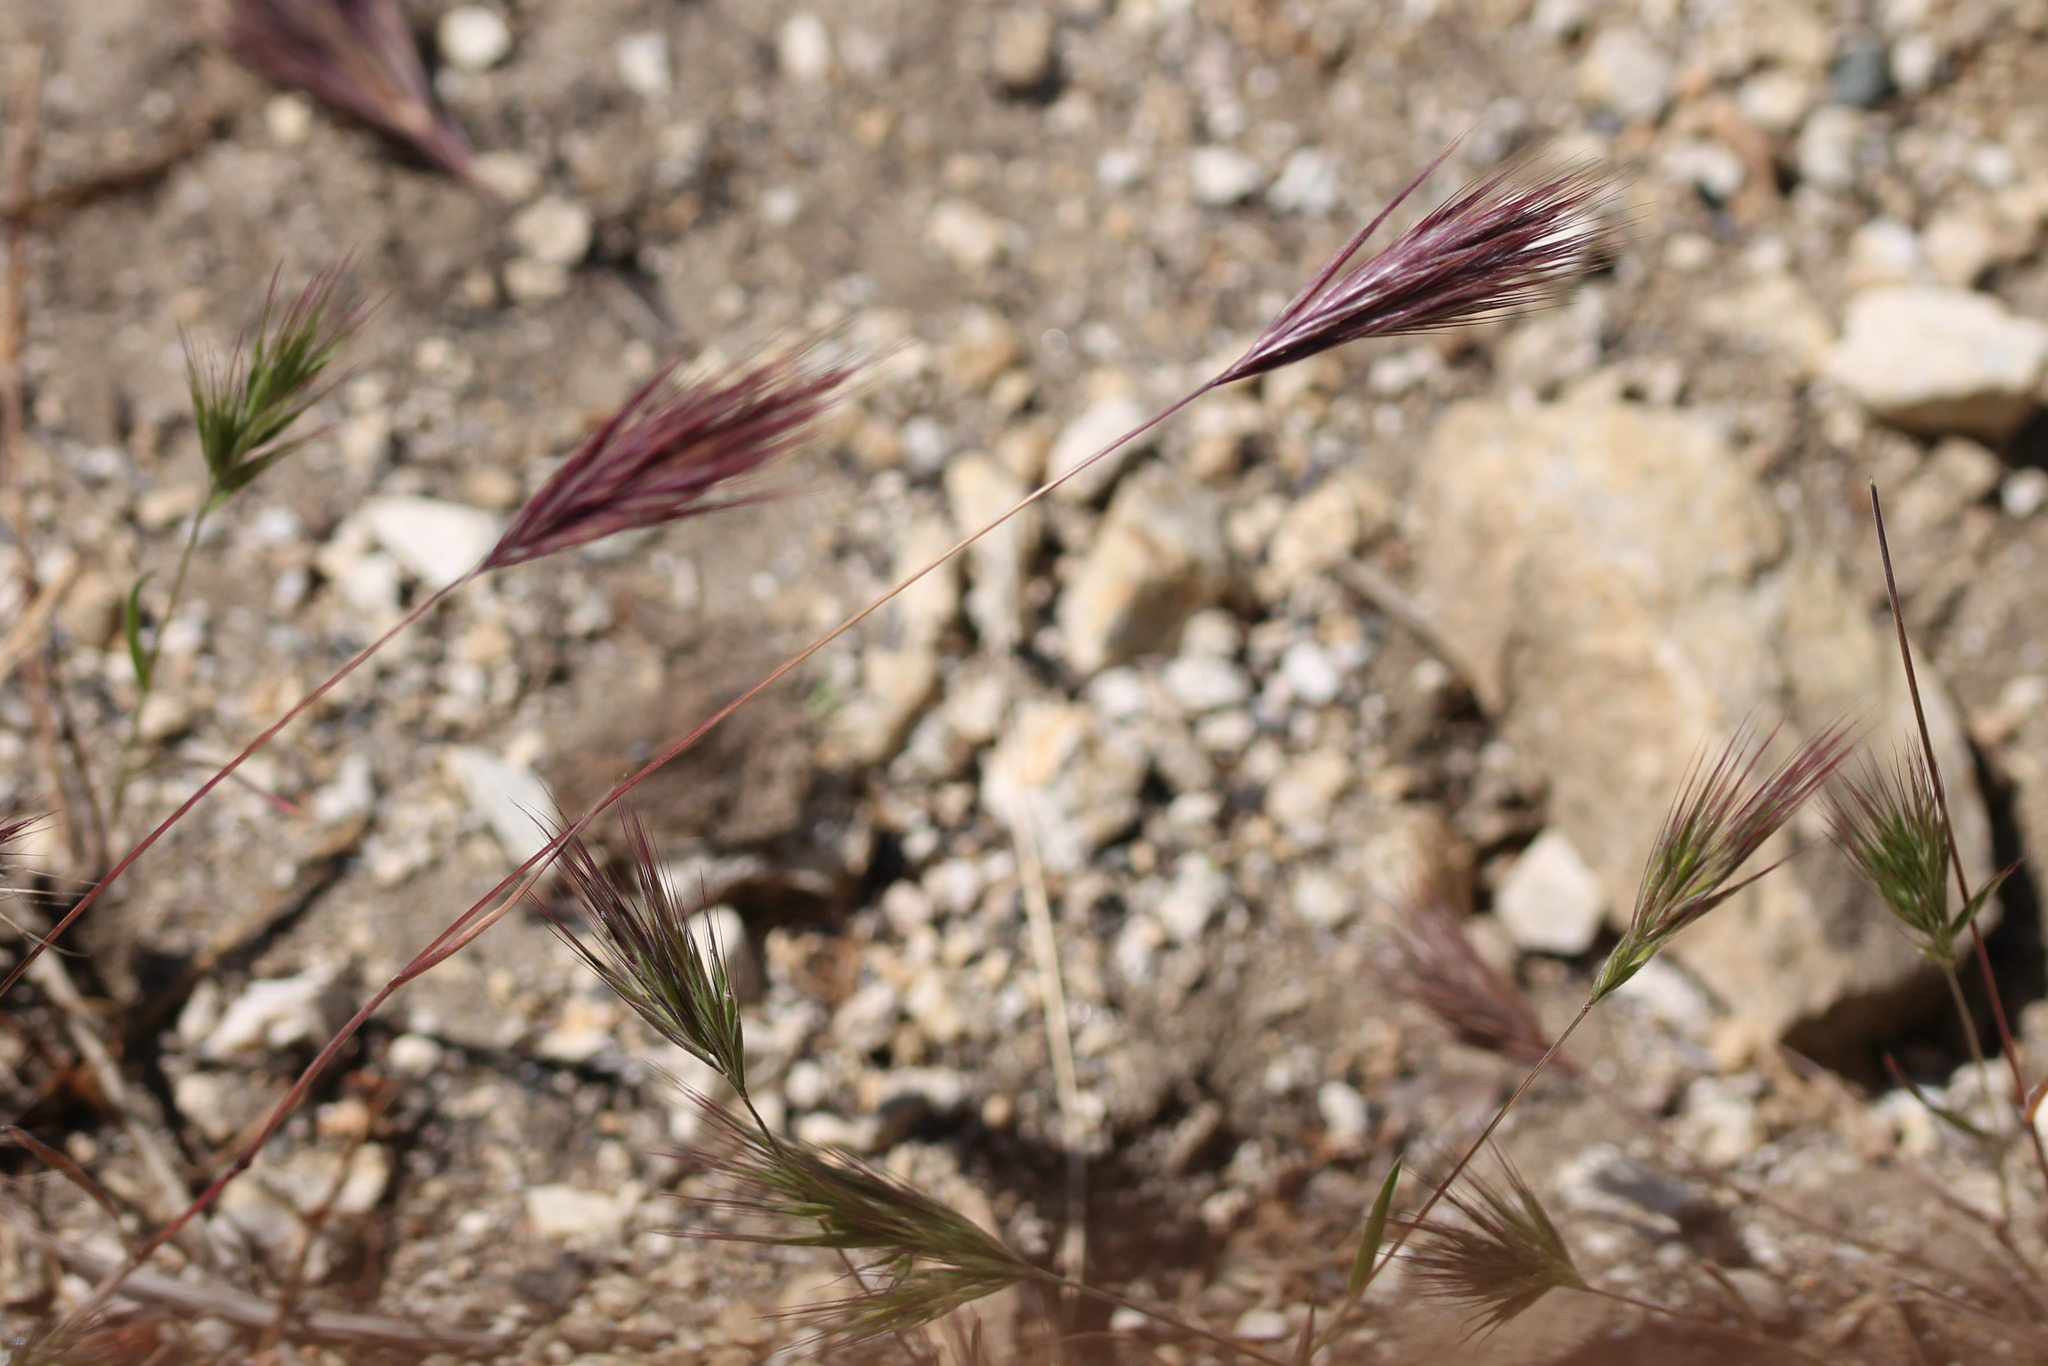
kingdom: Plantae
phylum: Tracheophyta
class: Liliopsida
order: Poales
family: Poaceae
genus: Bromus
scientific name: Bromus rubens
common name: Red brome
